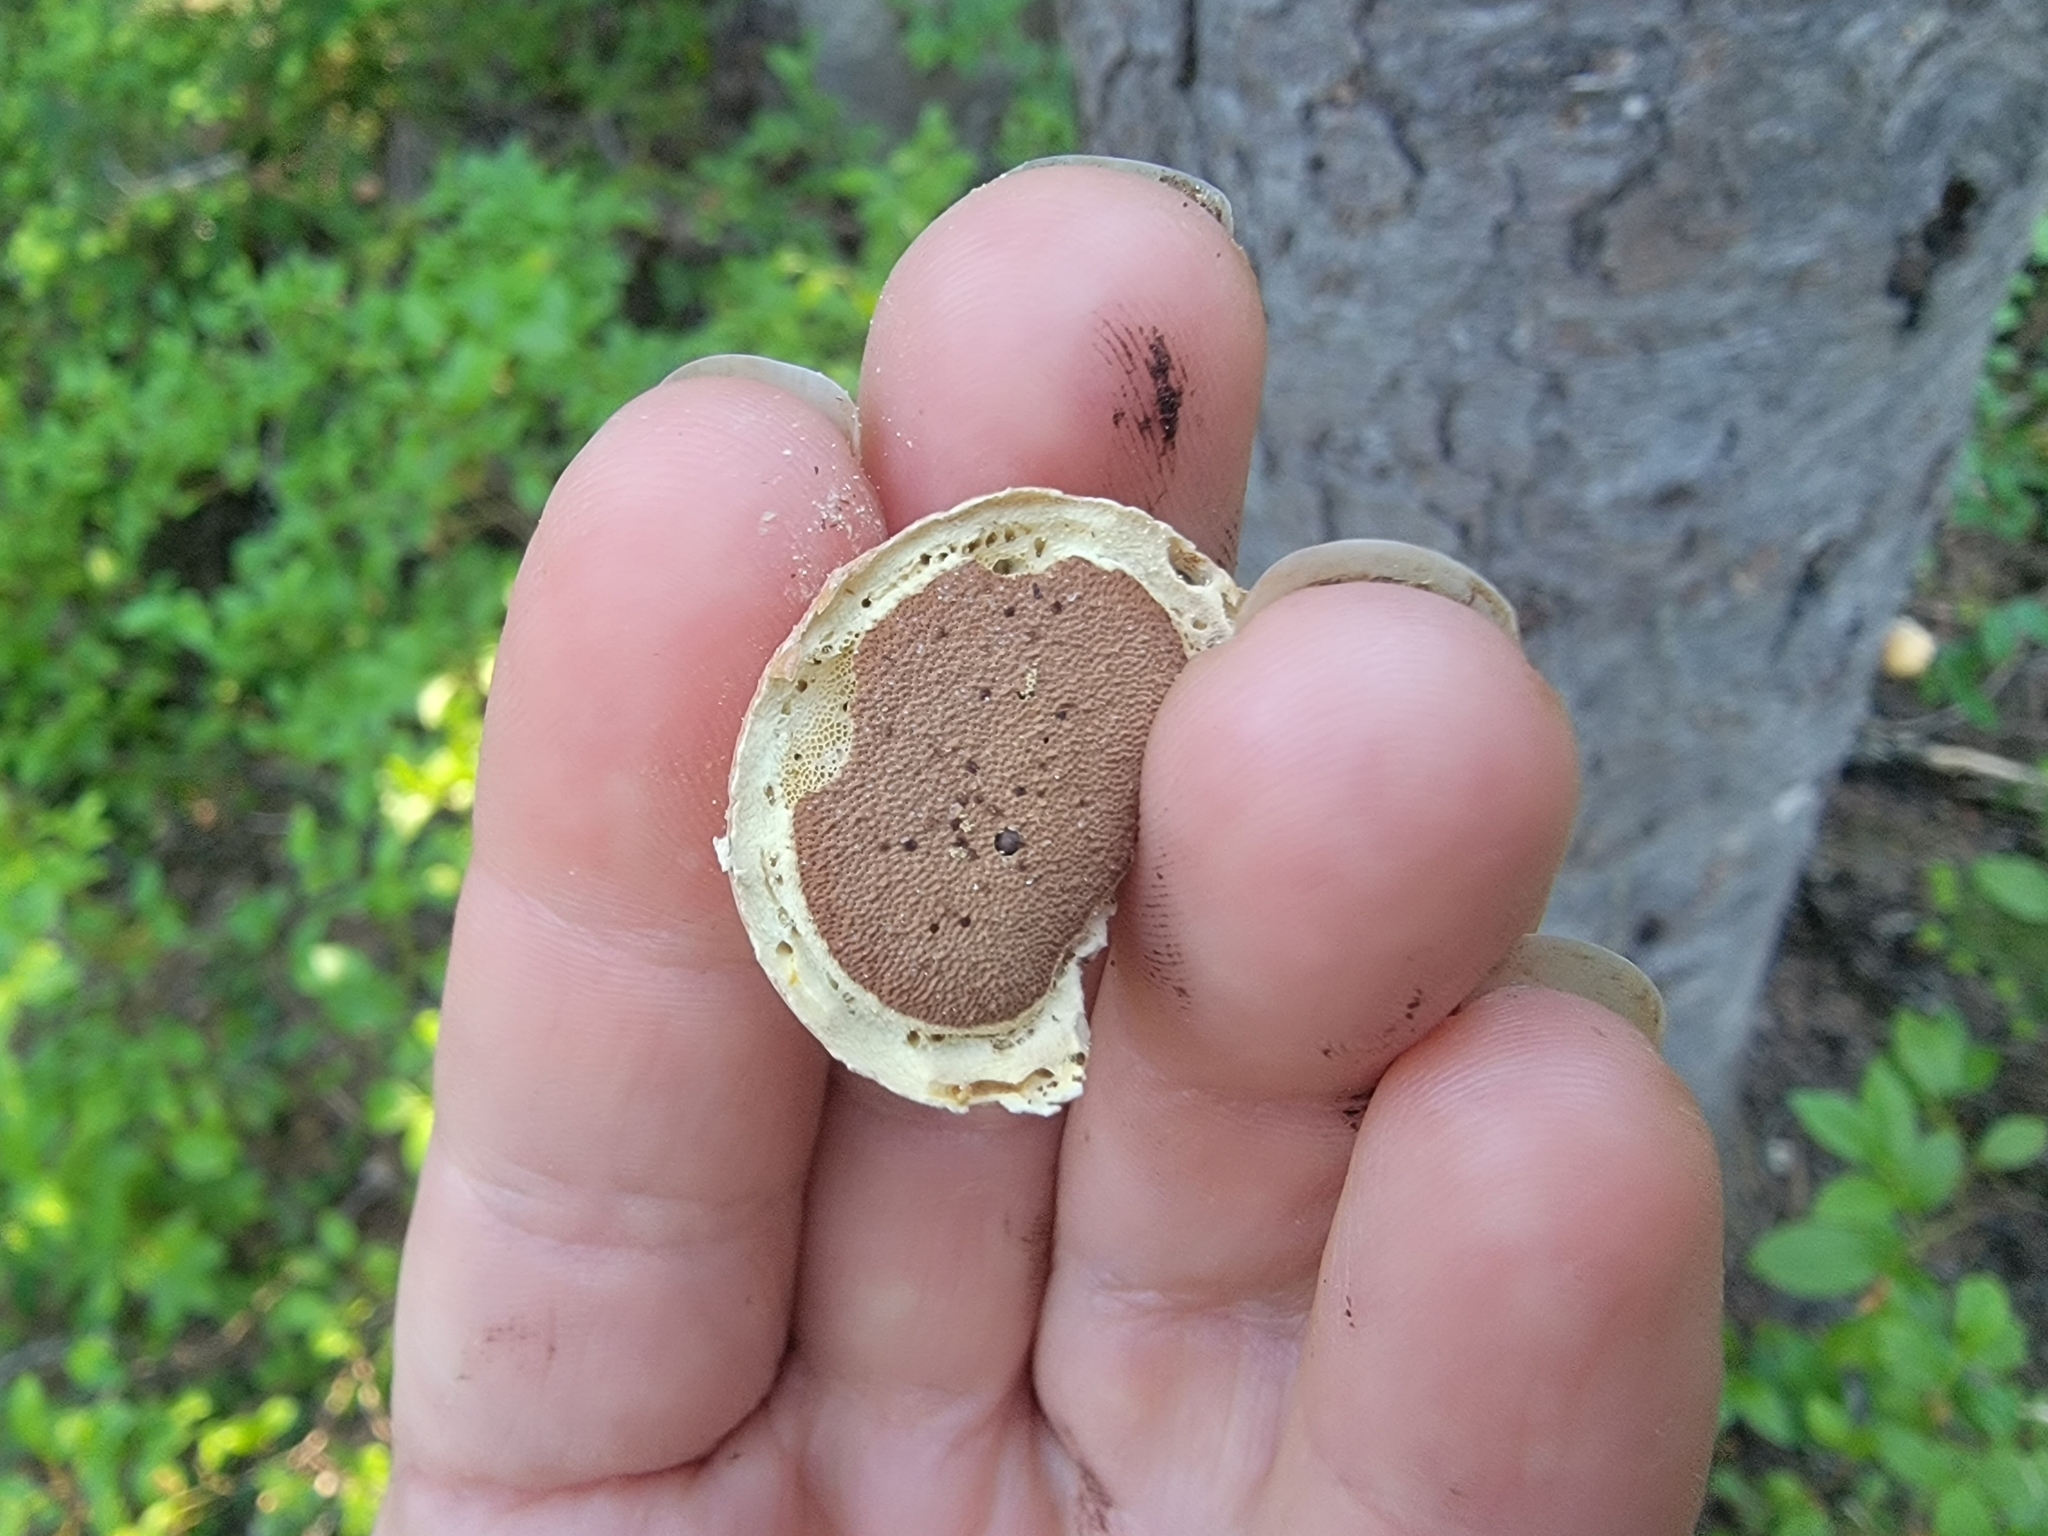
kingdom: Fungi
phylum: Basidiomycota
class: Agaricomycetes
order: Polyporales
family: Polyporaceae
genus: Cryptoporus
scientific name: Cryptoporus volvatus
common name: Veiled polypore
